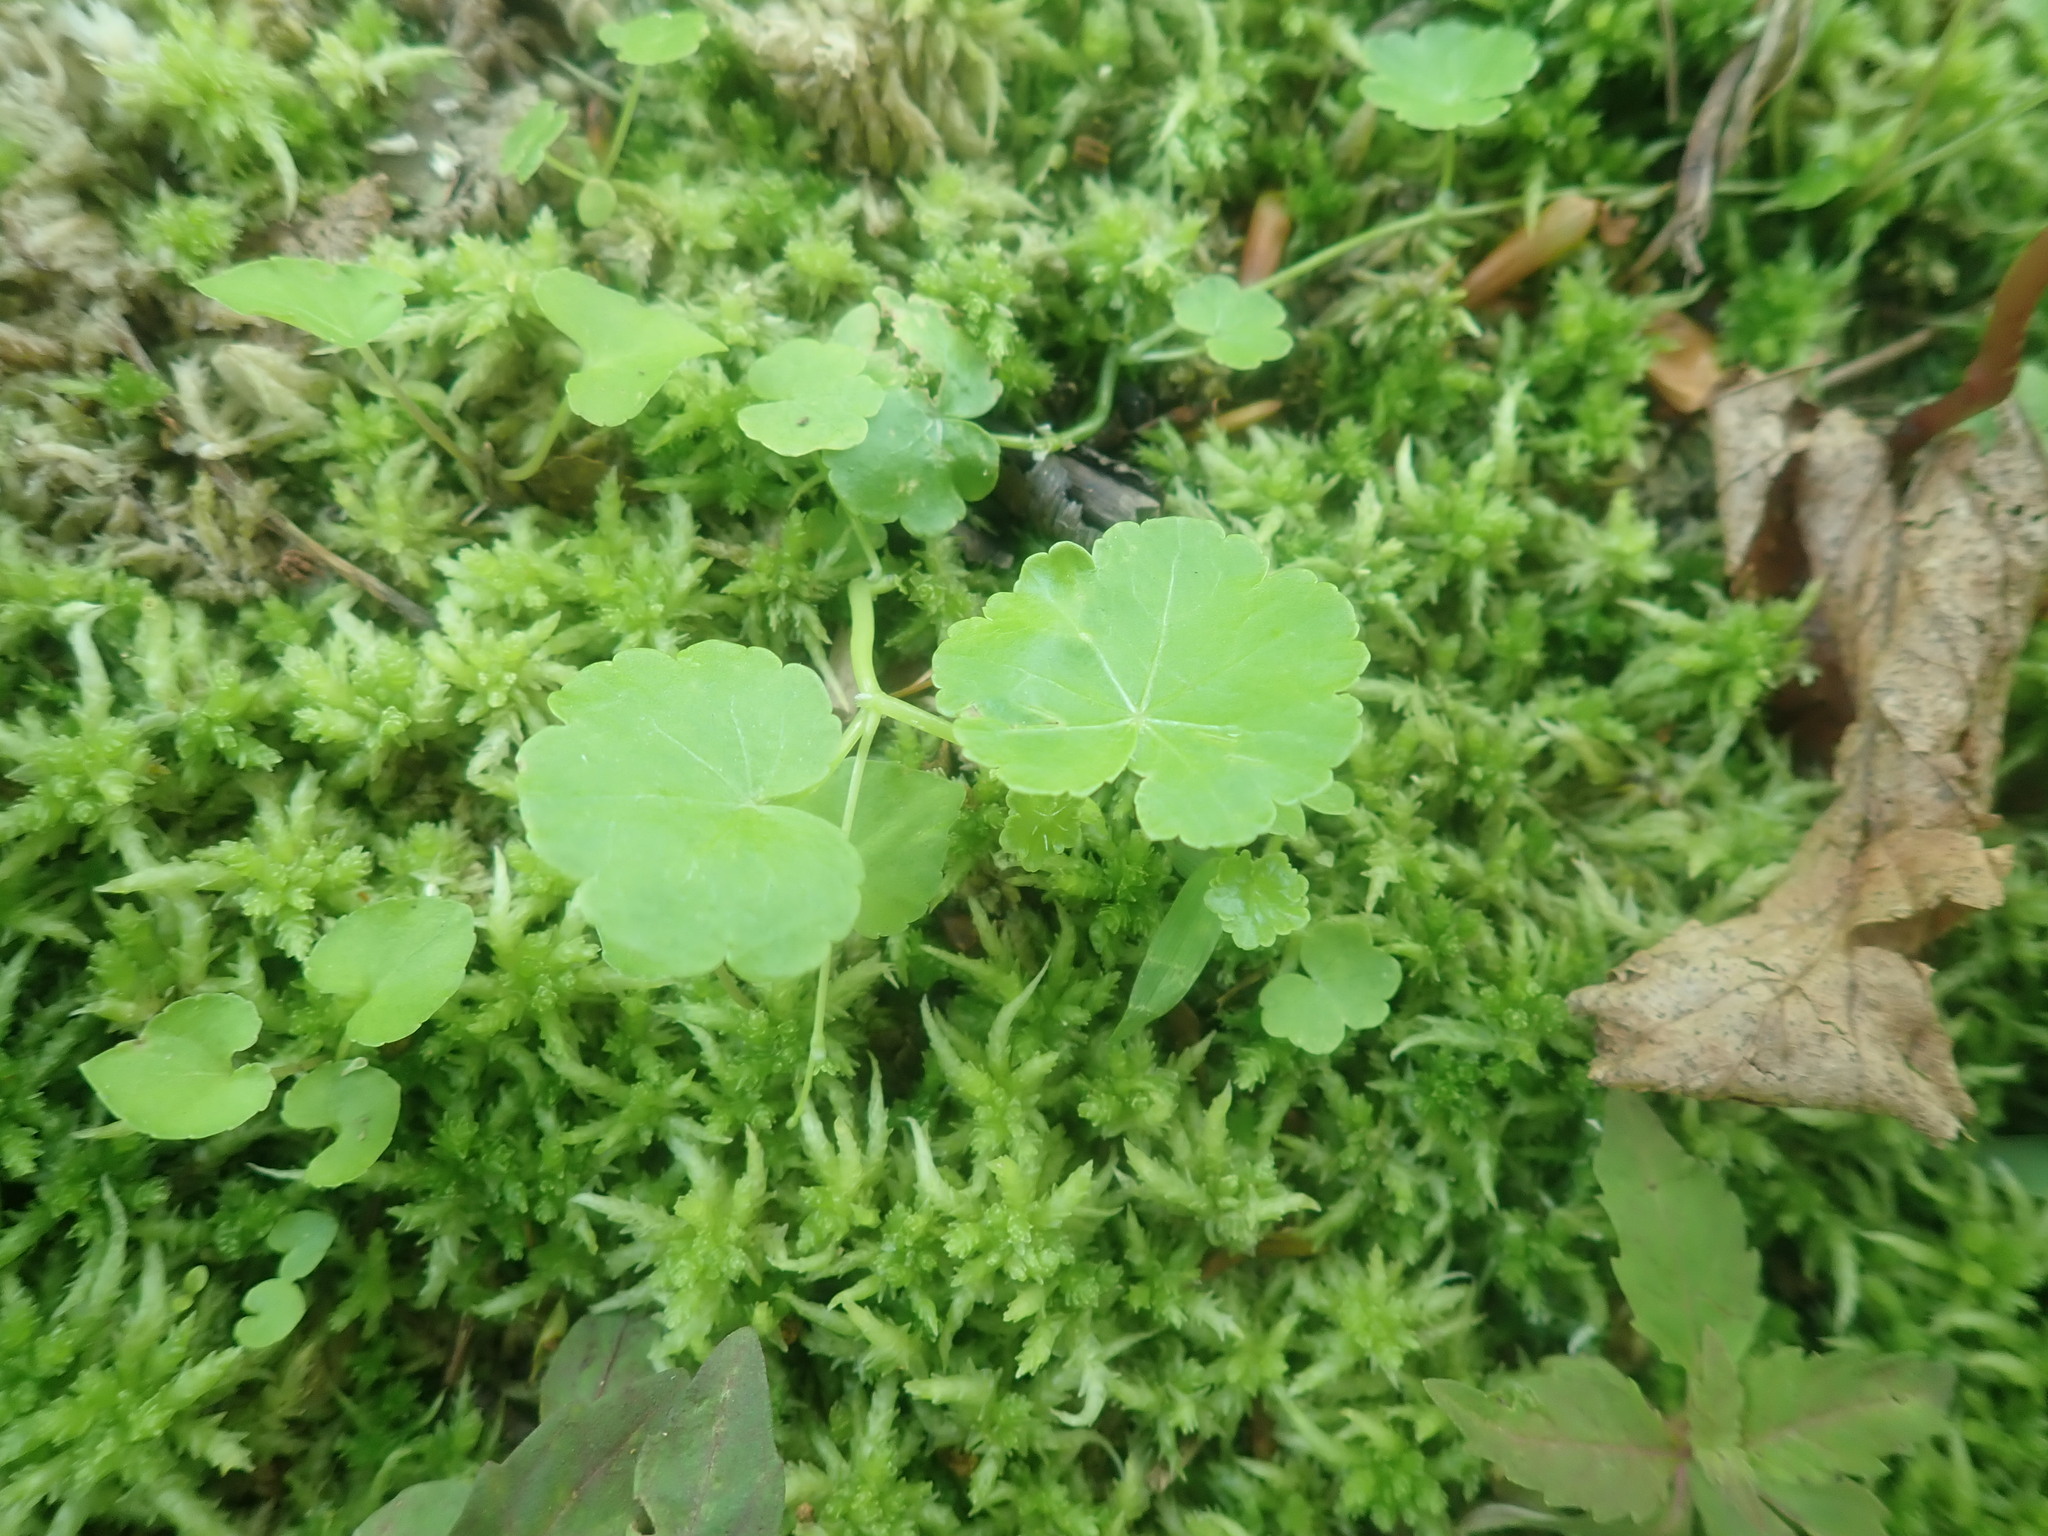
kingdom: Plantae
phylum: Tracheophyta
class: Magnoliopsida
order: Apiales
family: Araliaceae
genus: Hydrocotyle
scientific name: Hydrocotyle americana
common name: American water-pennywort
